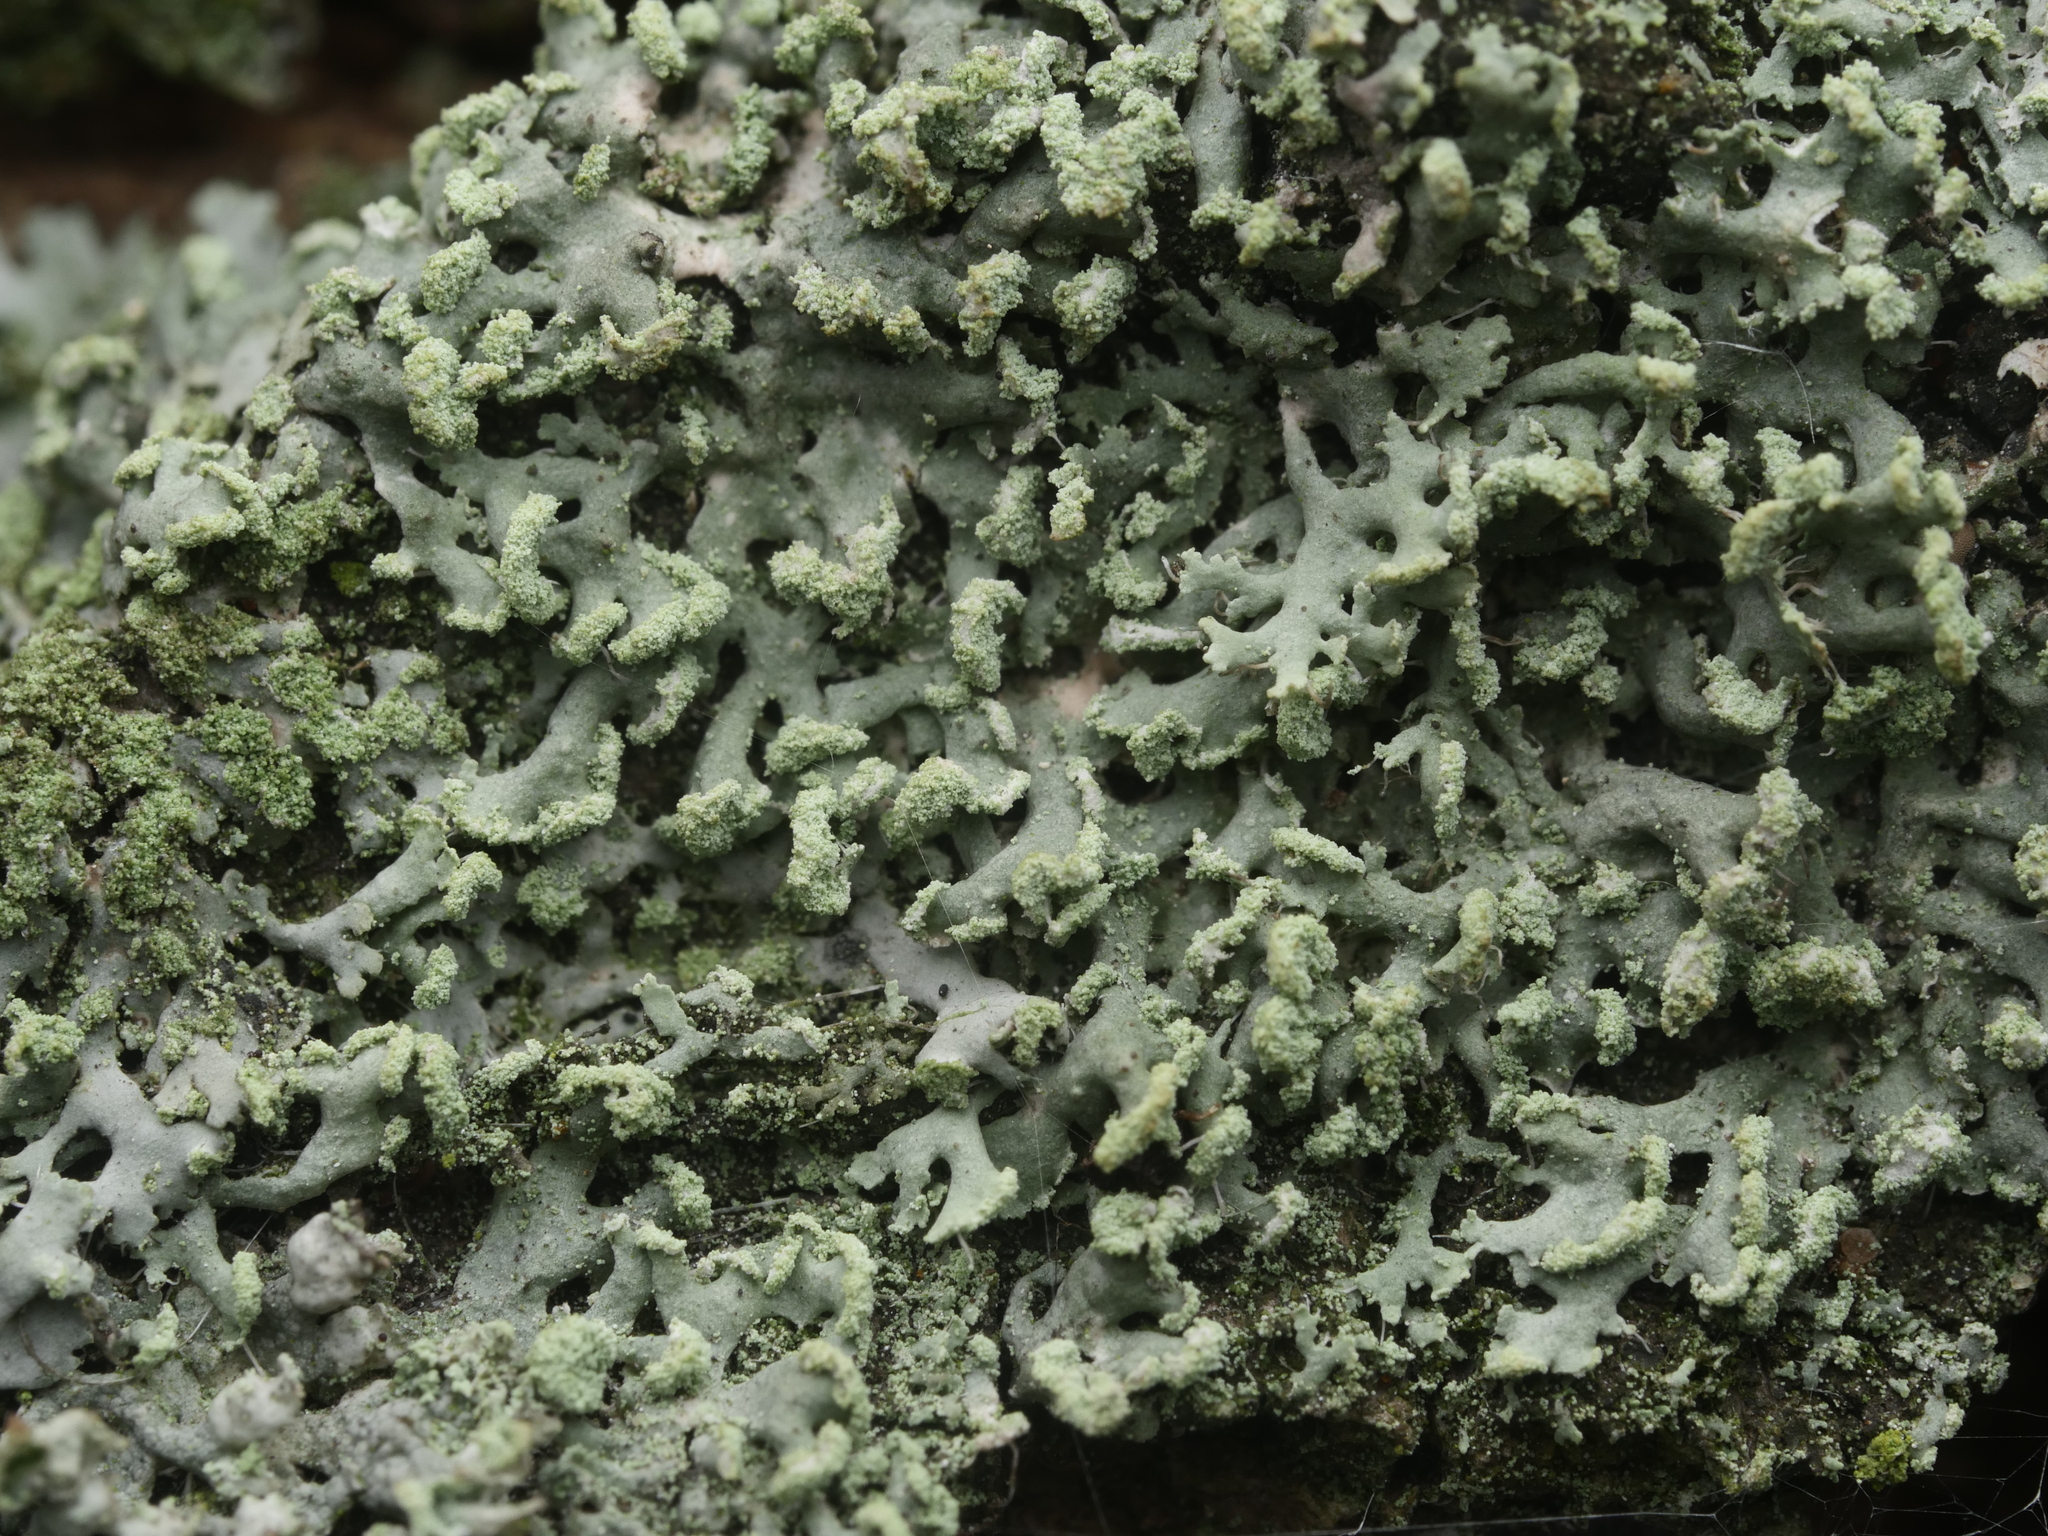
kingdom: Fungi
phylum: Ascomycota
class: Lecanoromycetes
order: Caliciales
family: Physciaceae
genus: Physcia
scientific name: Physcia tenella
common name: Fringed rosette lichen
